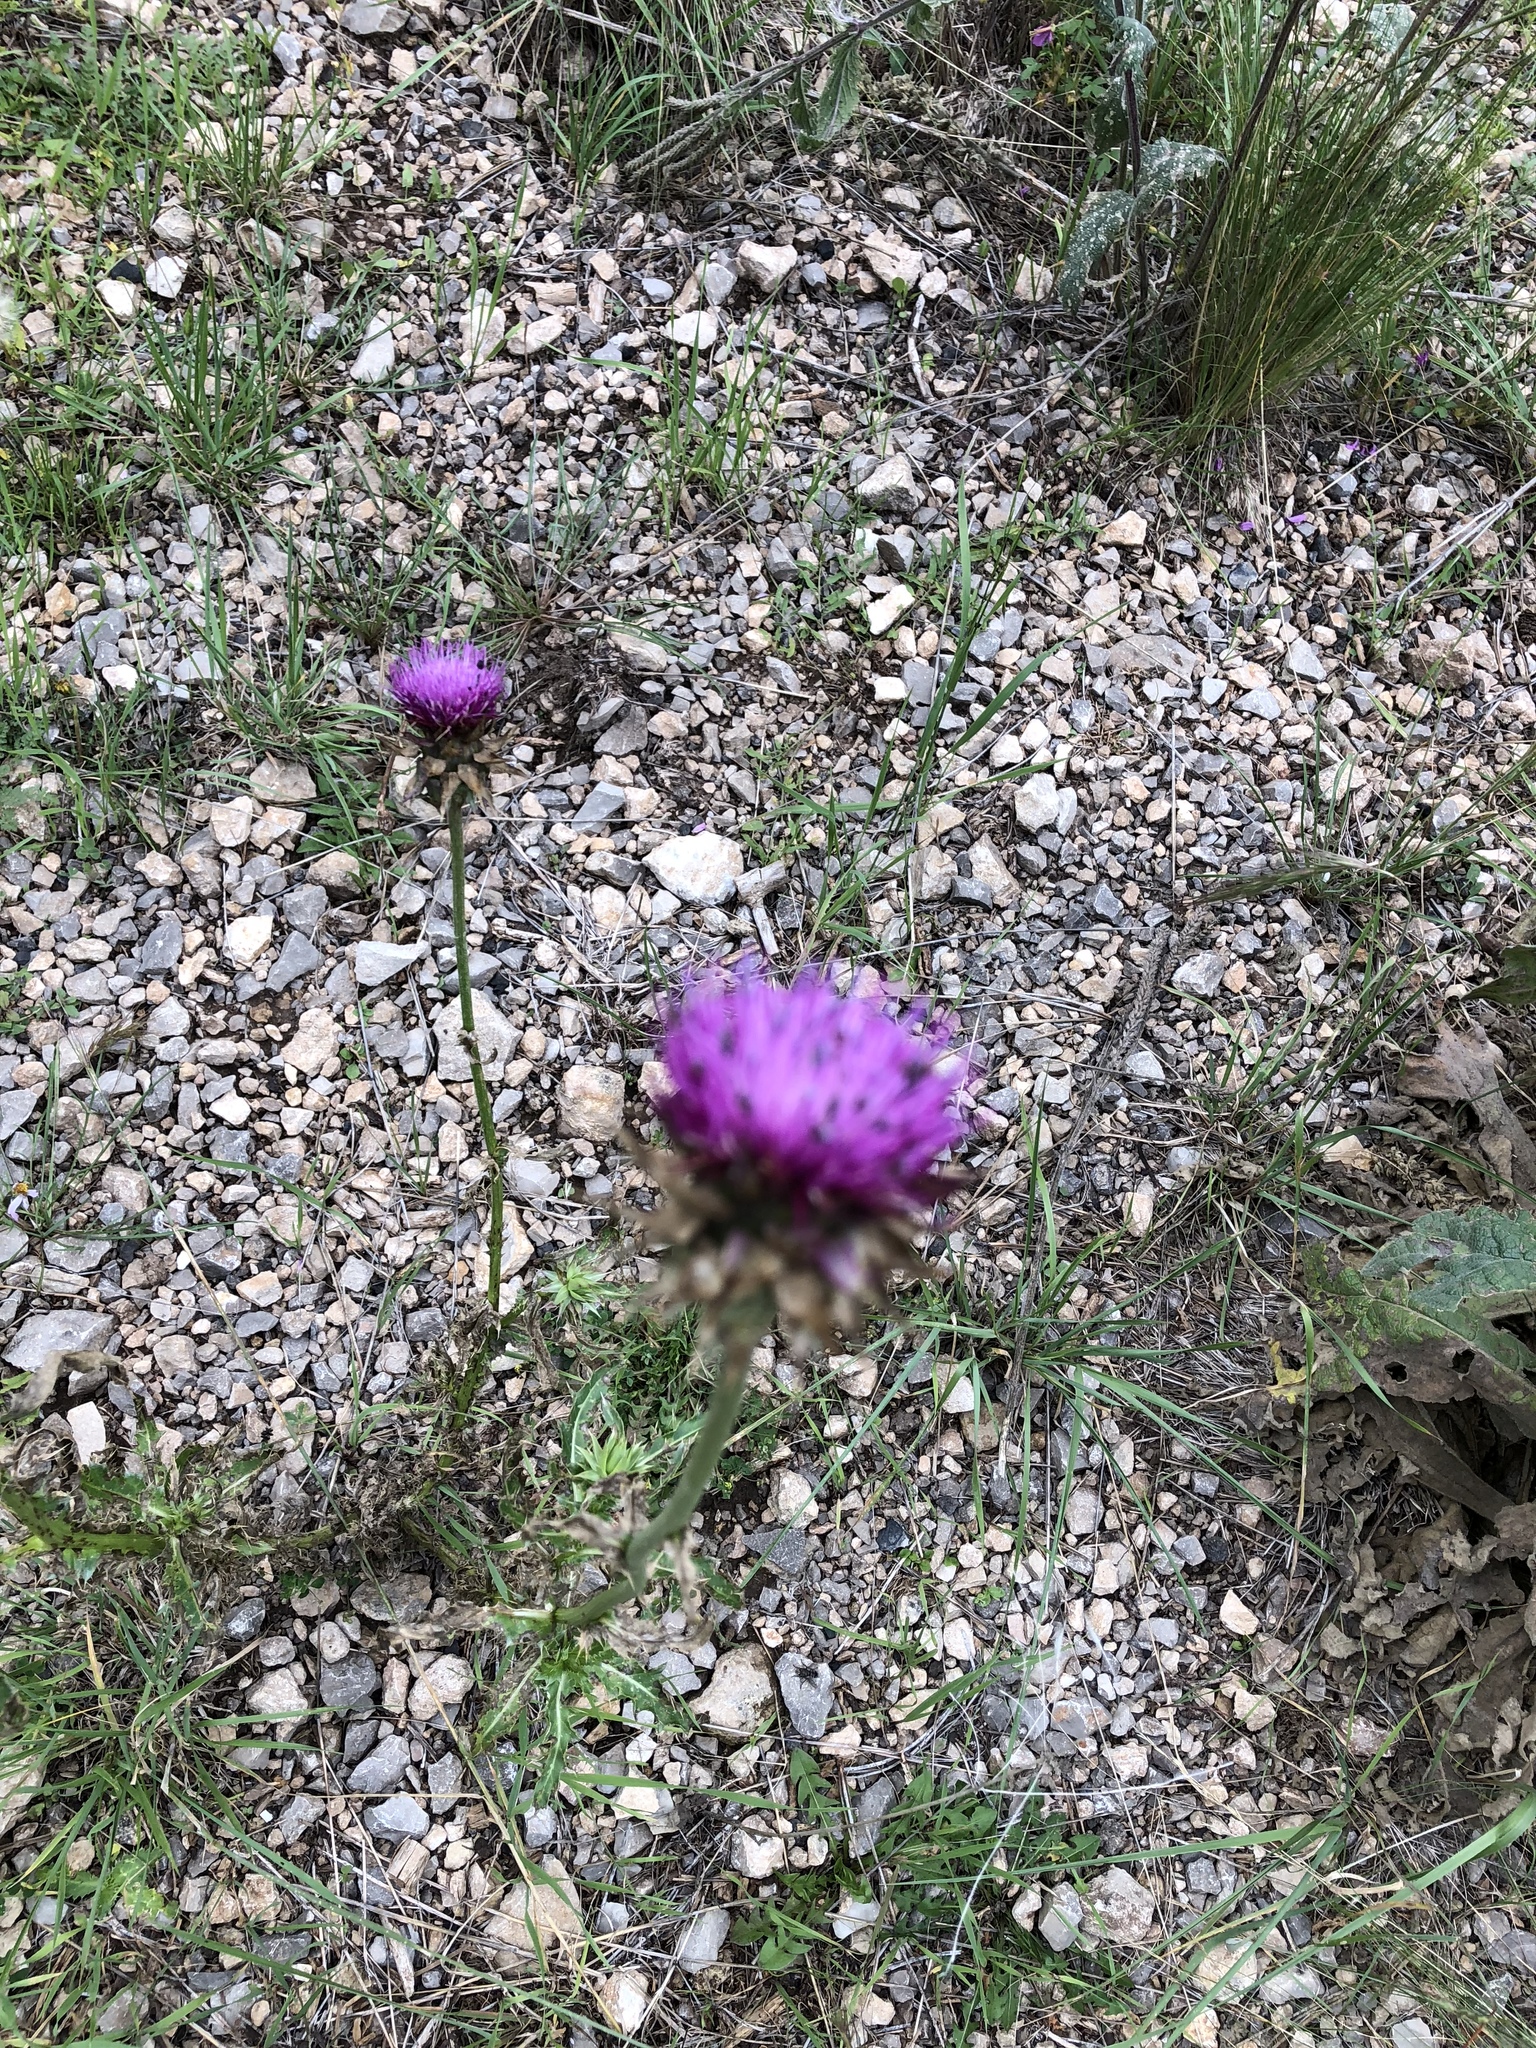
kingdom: Plantae
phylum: Tracheophyta
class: Magnoliopsida
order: Asterales
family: Asteraceae
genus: Carduus
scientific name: Carduus nutans
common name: Musk thistle
